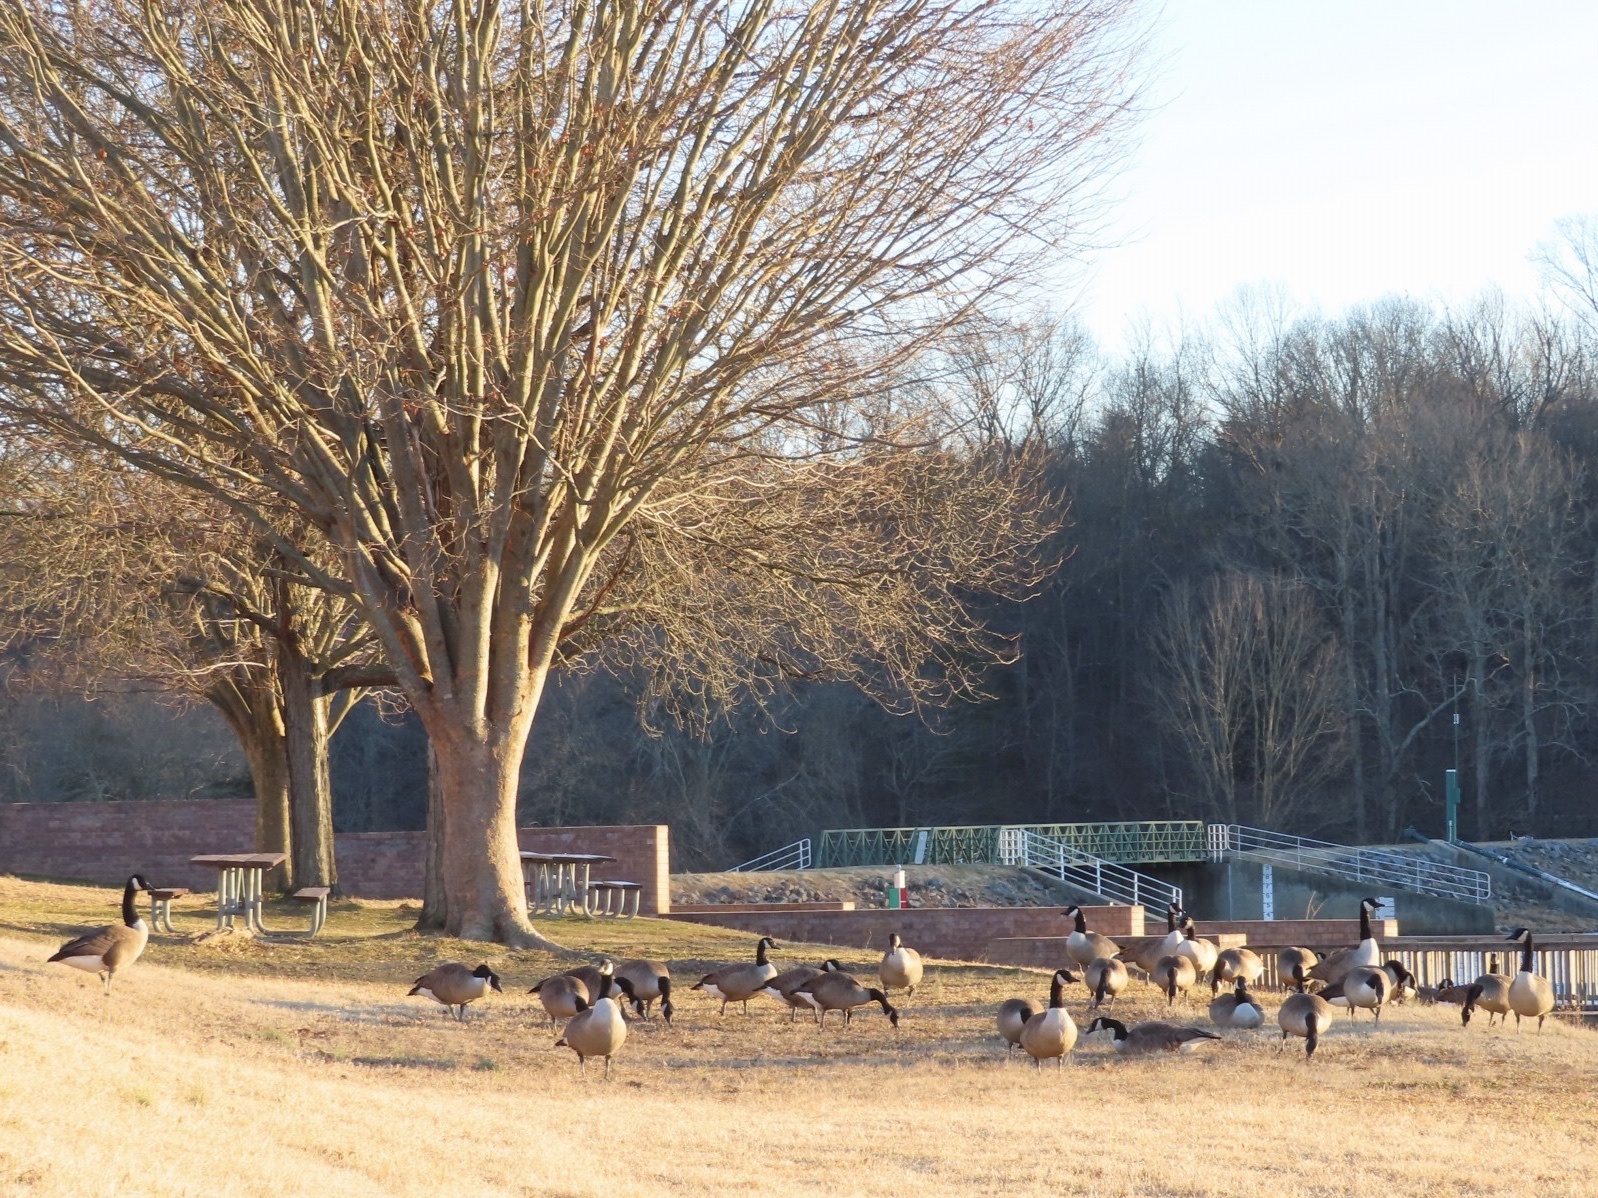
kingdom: Animalia
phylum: Chordata
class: Aves
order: Anseriformes
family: Anatidae
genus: Branta
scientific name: Branta canadensis
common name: Canada goose
